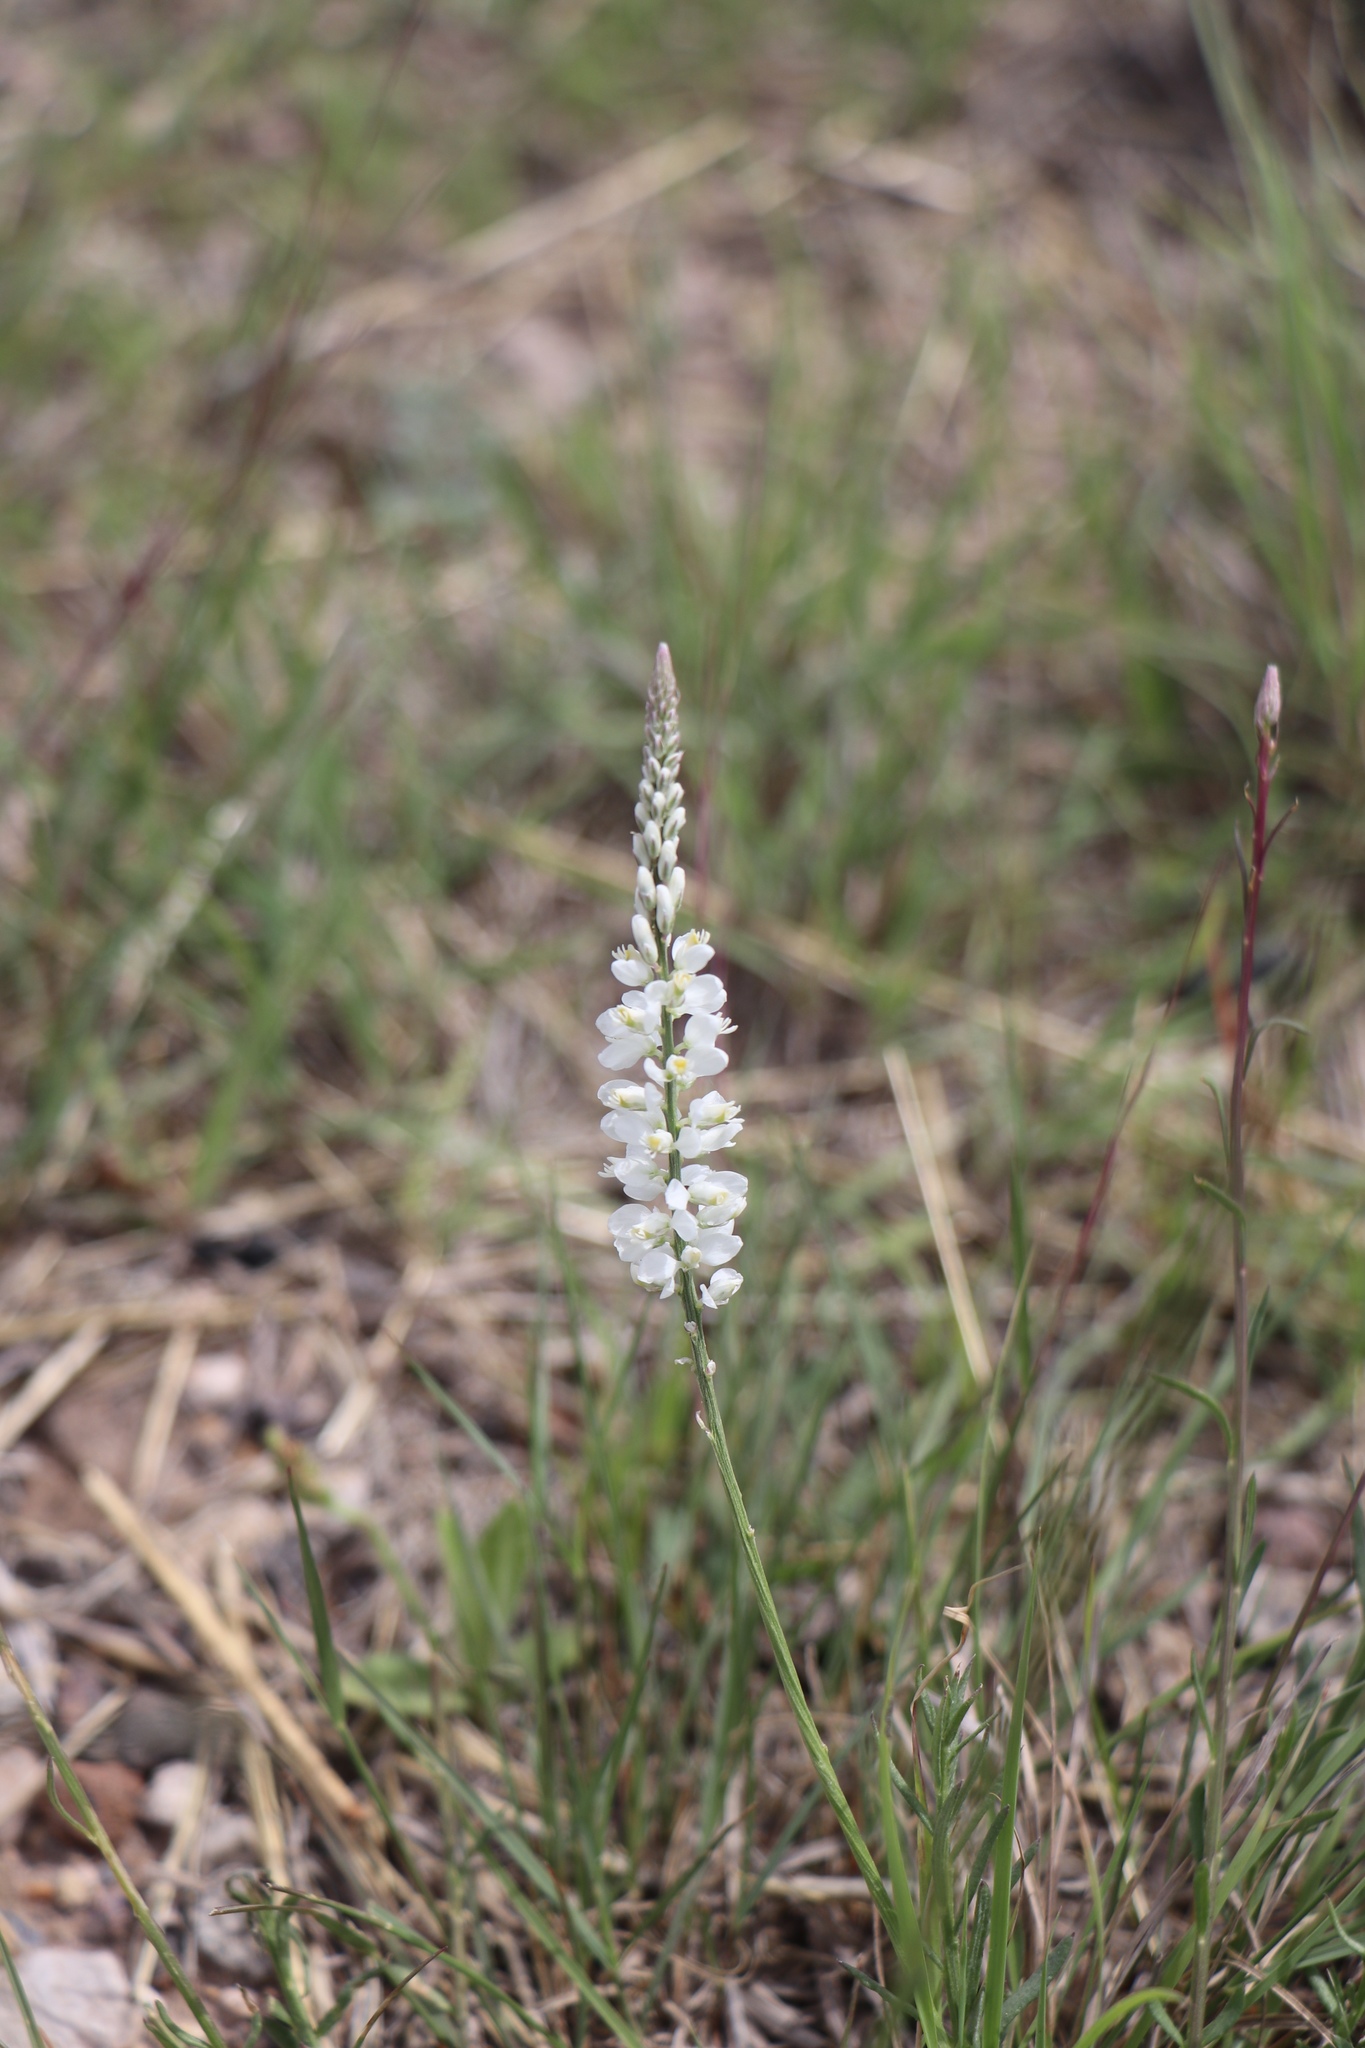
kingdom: Plantae
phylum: Tracheophyta
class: Magnoliopsida
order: Fabales
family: Polygalaceae
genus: Polygala
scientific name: Polygala alba
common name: White milkwort
